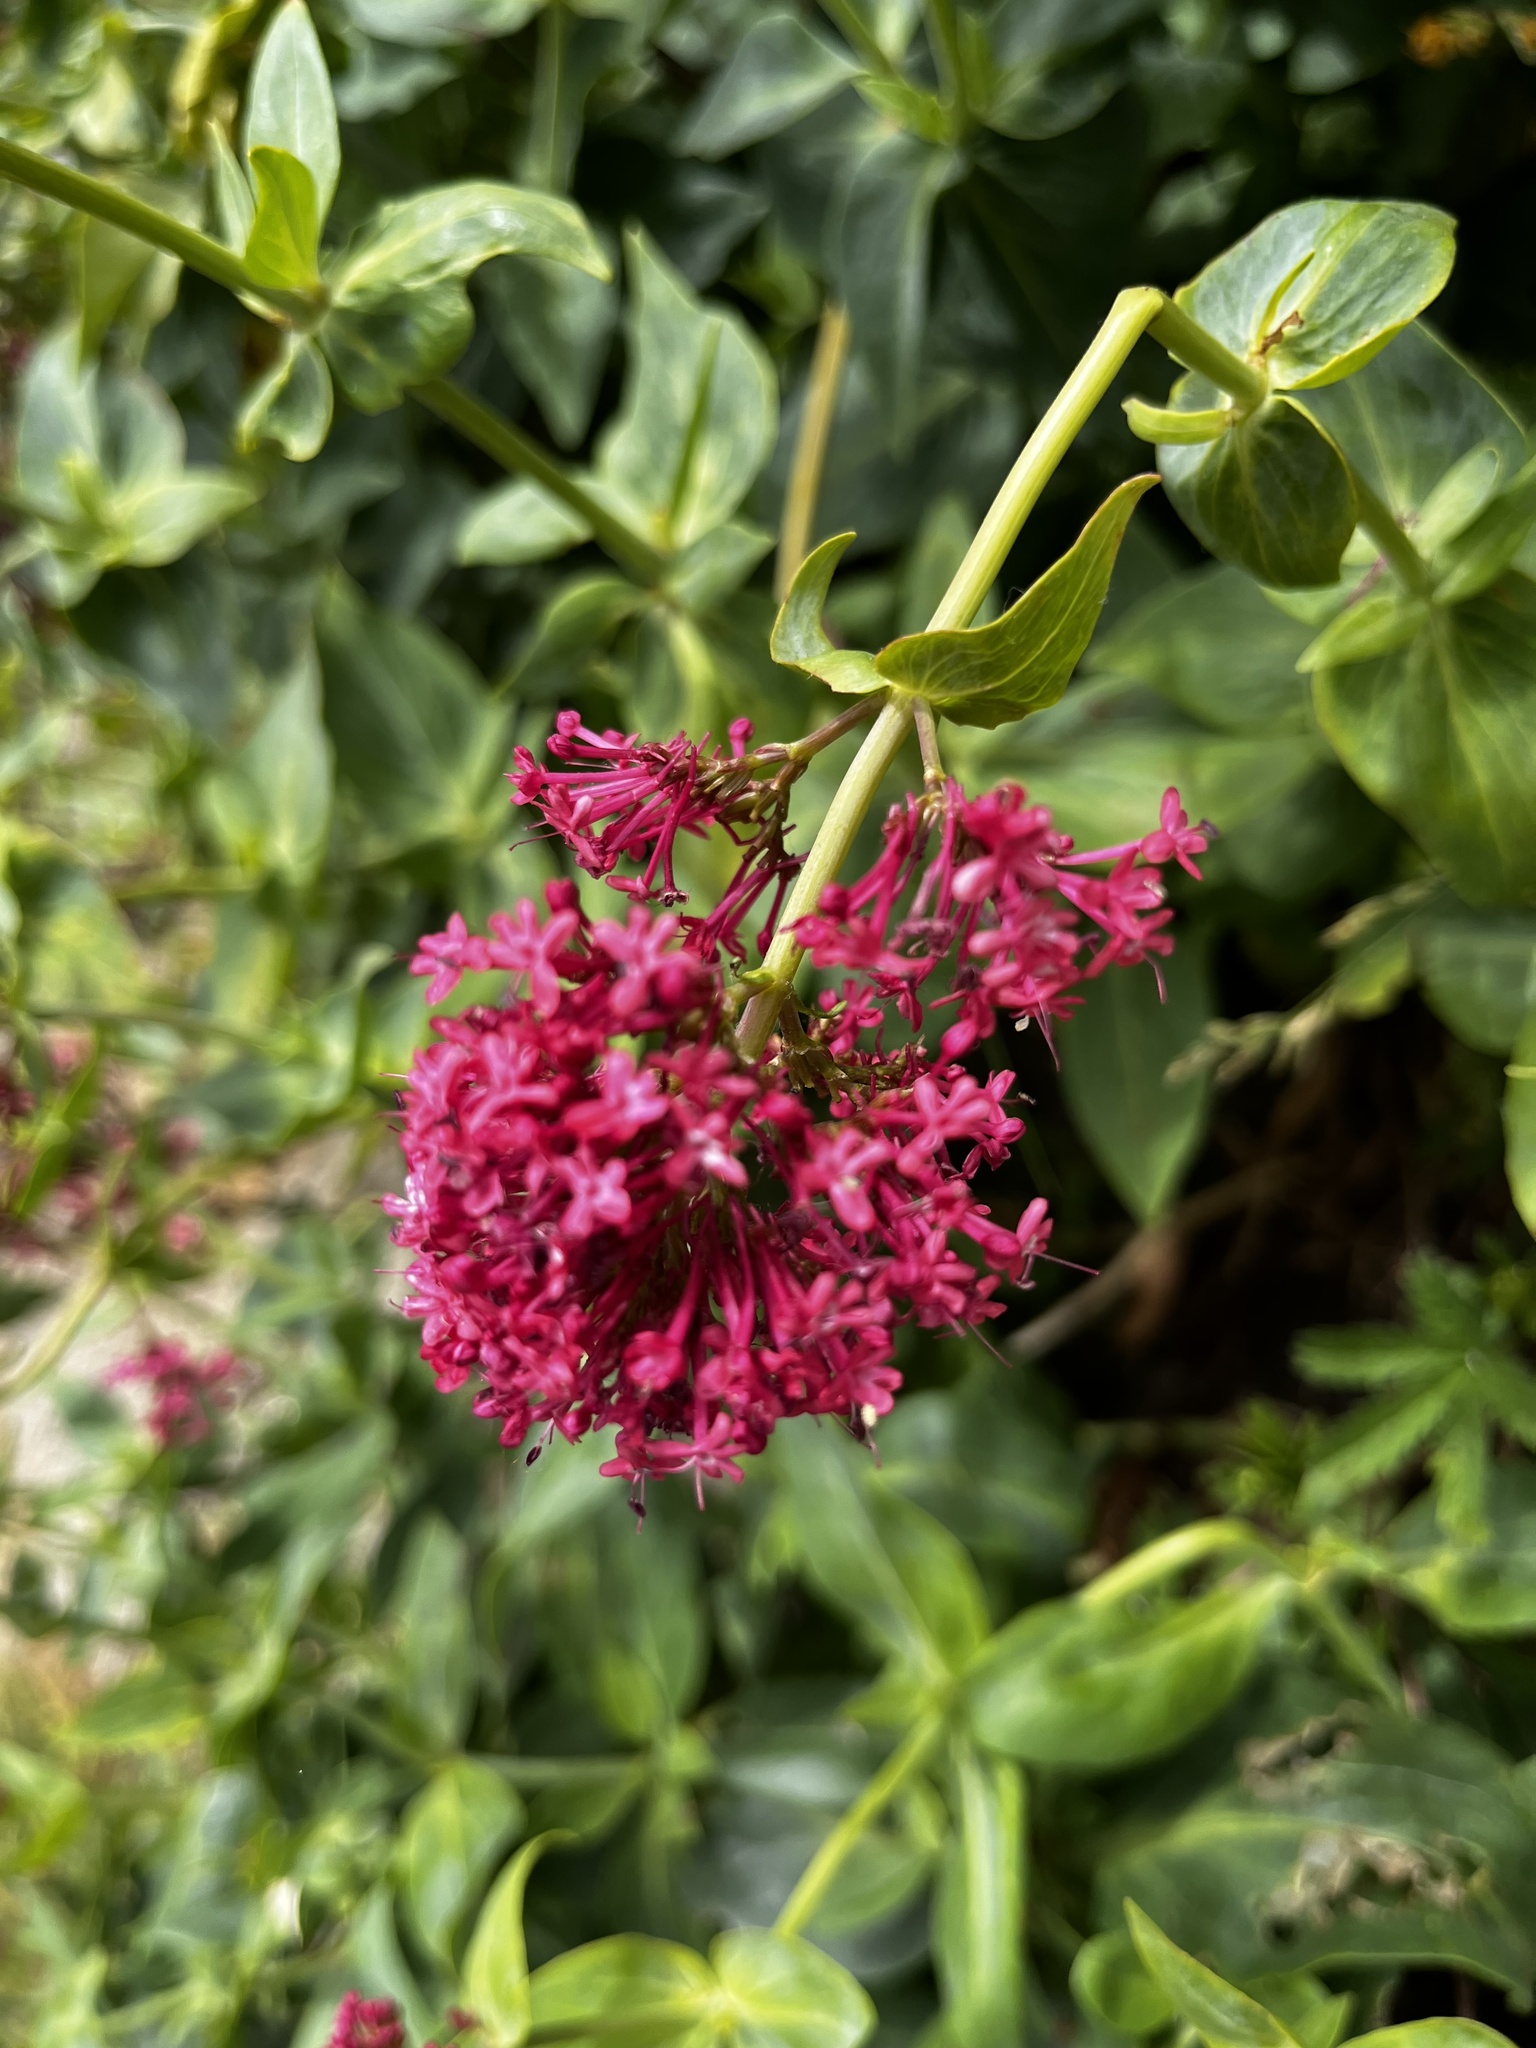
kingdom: Plantae
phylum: Tracheophyta
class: Magnoliopsida
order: Dipsacales
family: Caprifoliaceae
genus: Centranthus
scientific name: Centranthus ruber
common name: Red valerian
